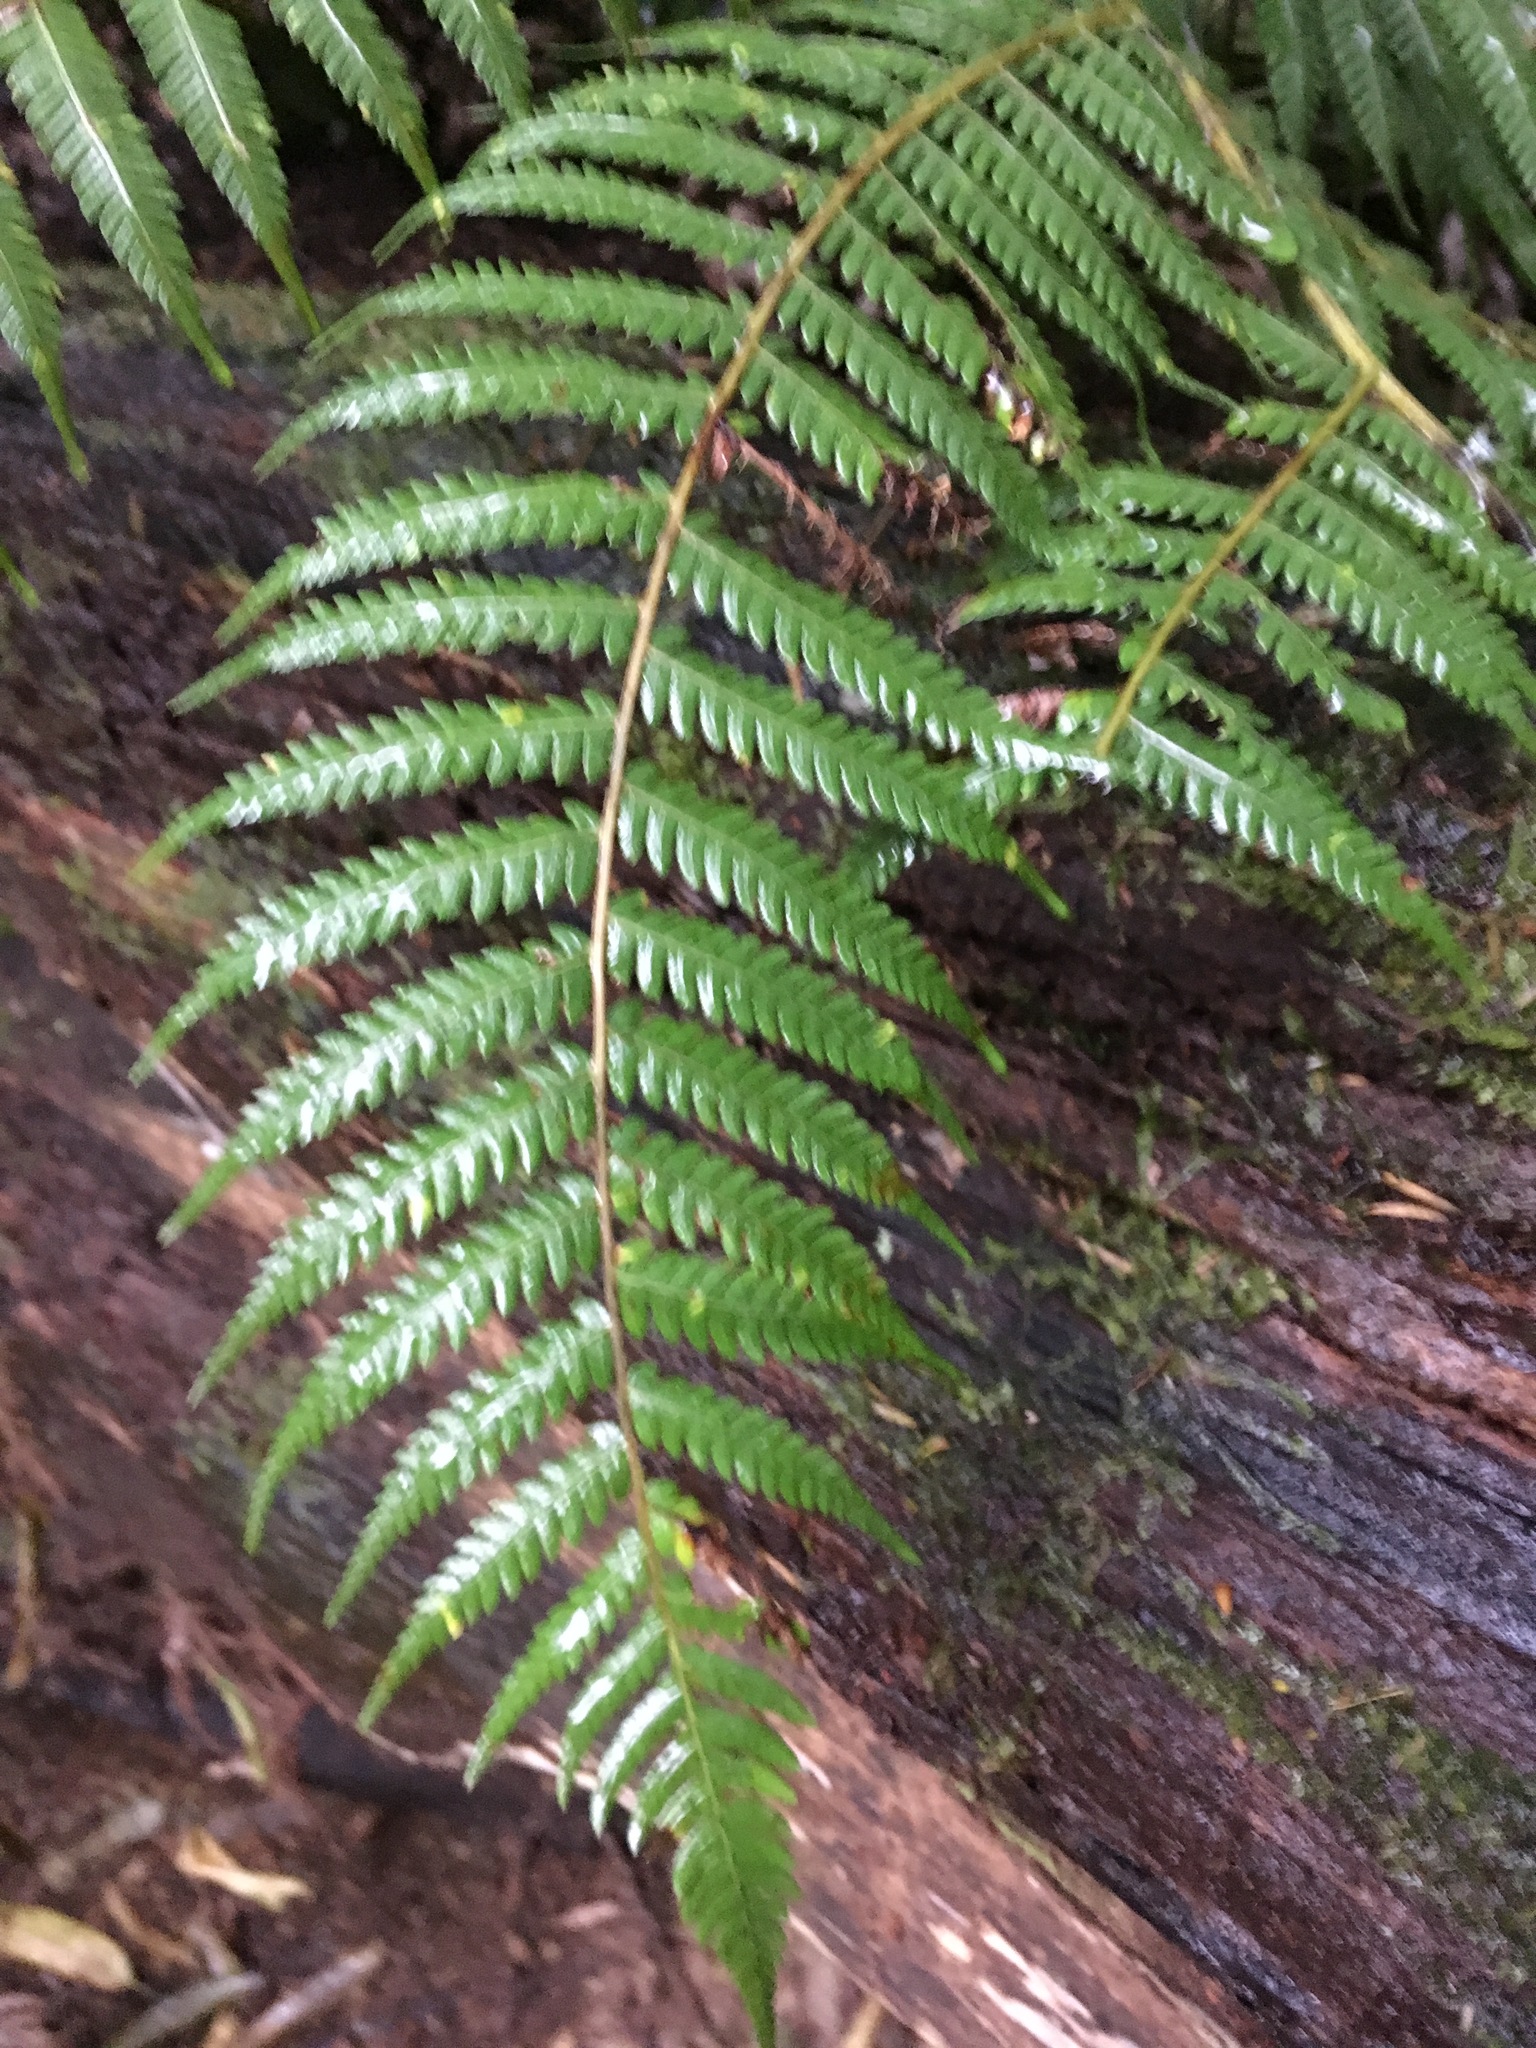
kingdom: Plantae
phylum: Tracheophyta
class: Polypodiopsida
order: Cyatheales
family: Cyatheaceae
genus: Alsophila
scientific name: Alsophila dealbata
